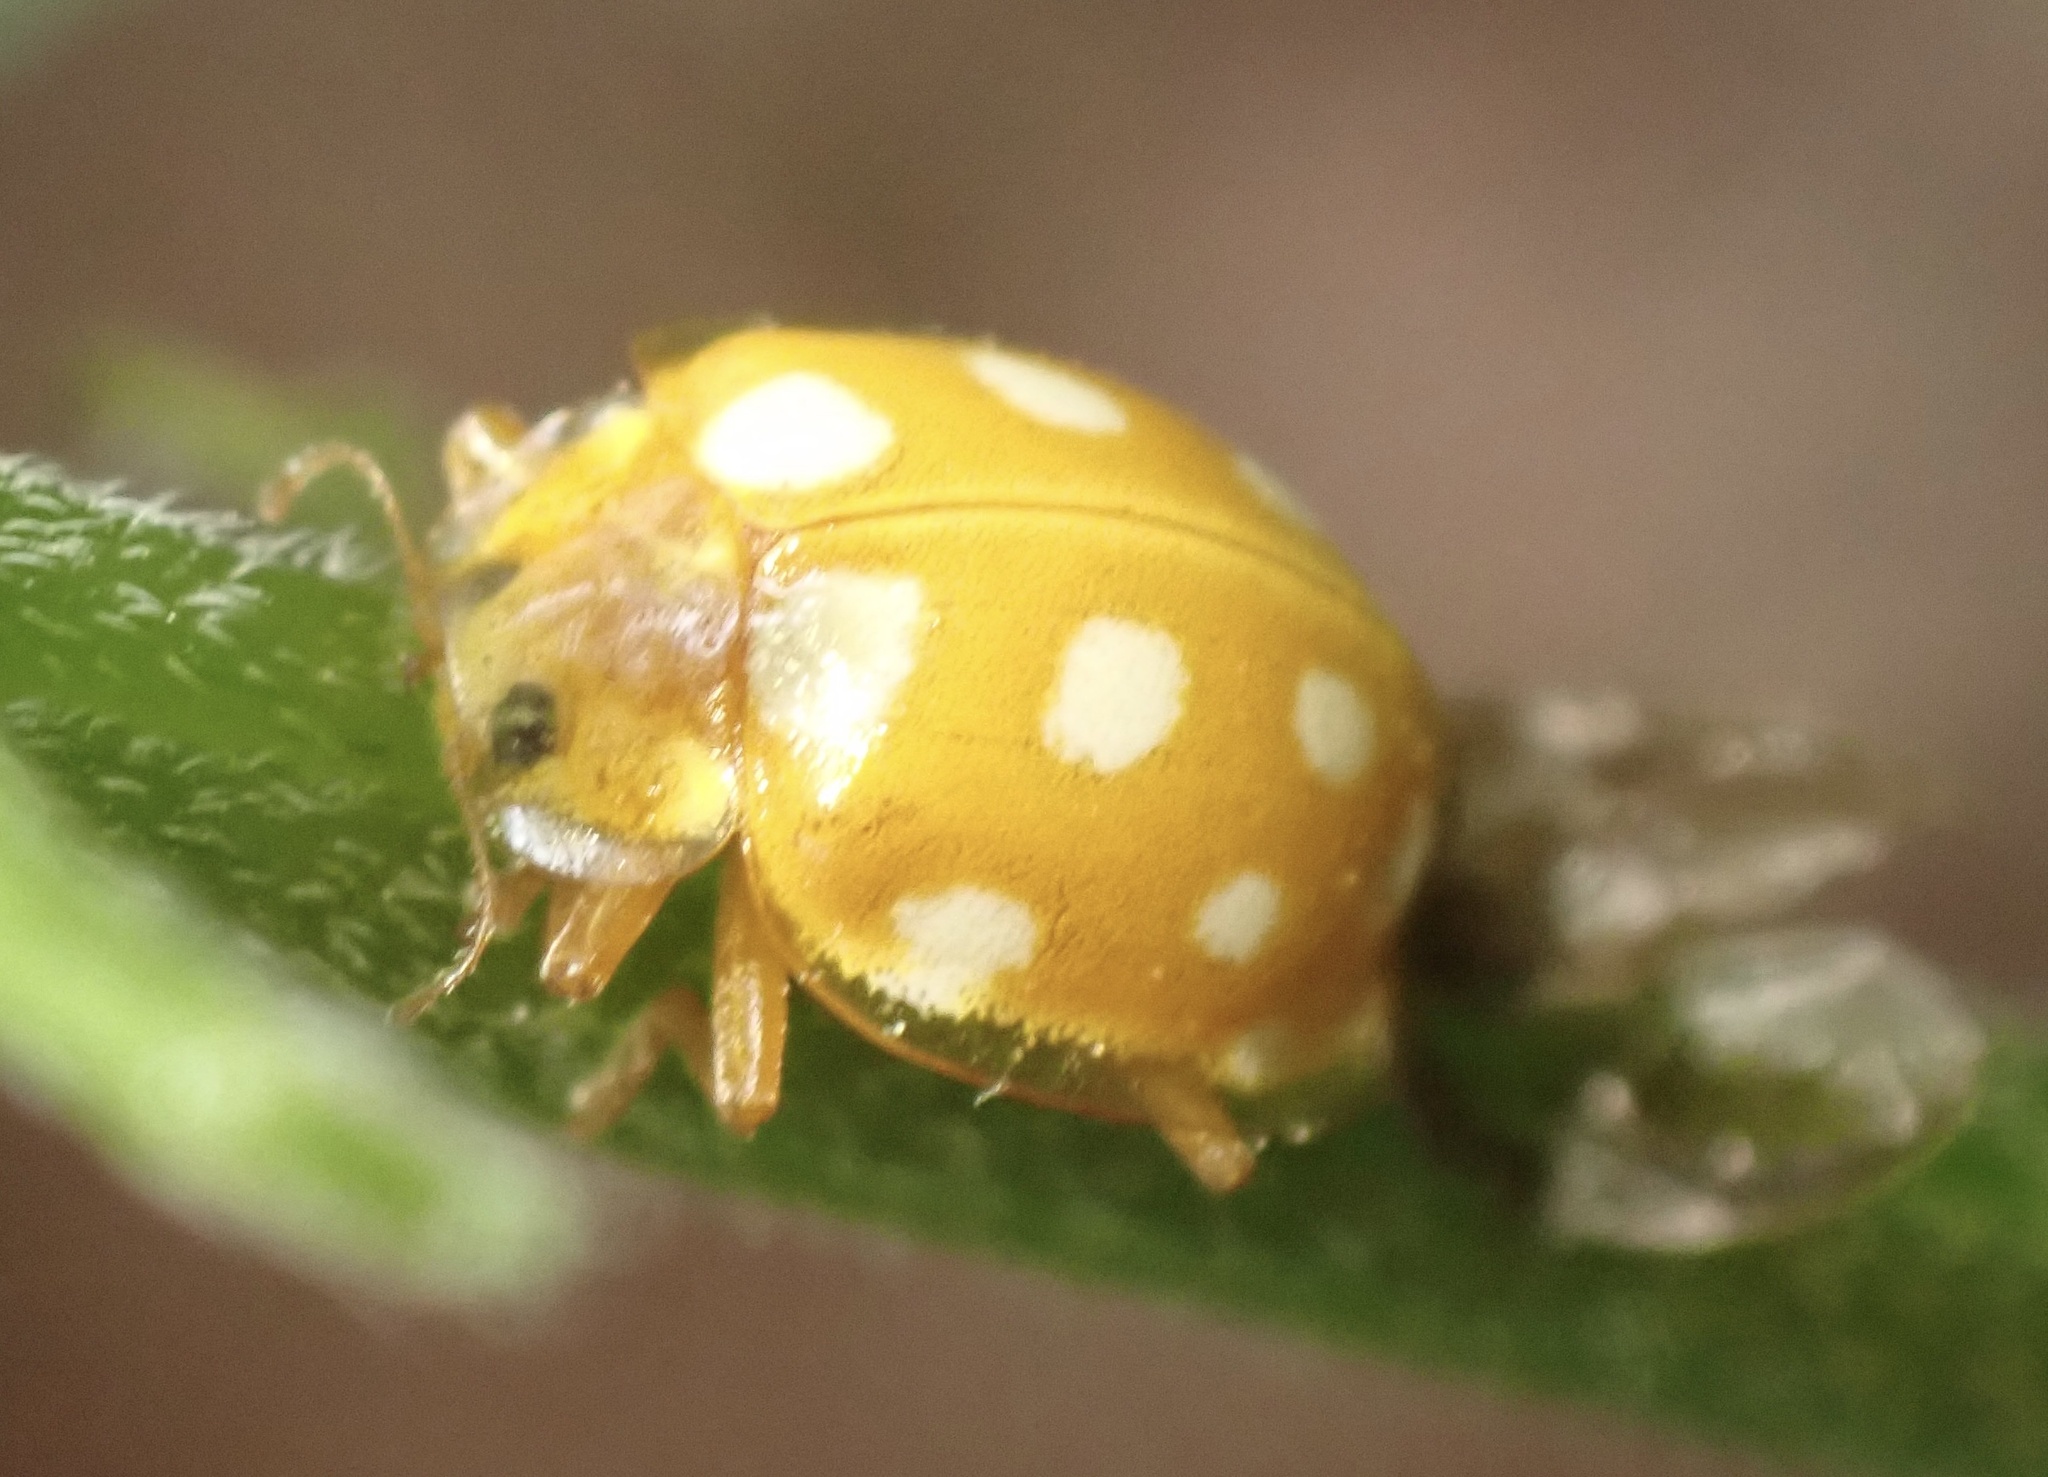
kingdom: Animalia
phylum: Arthropoda
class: Insecta
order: Coleoptera
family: Coccinellidae
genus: Halyzia
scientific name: Halyzia sedecimguttata
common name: Orange ladybird
